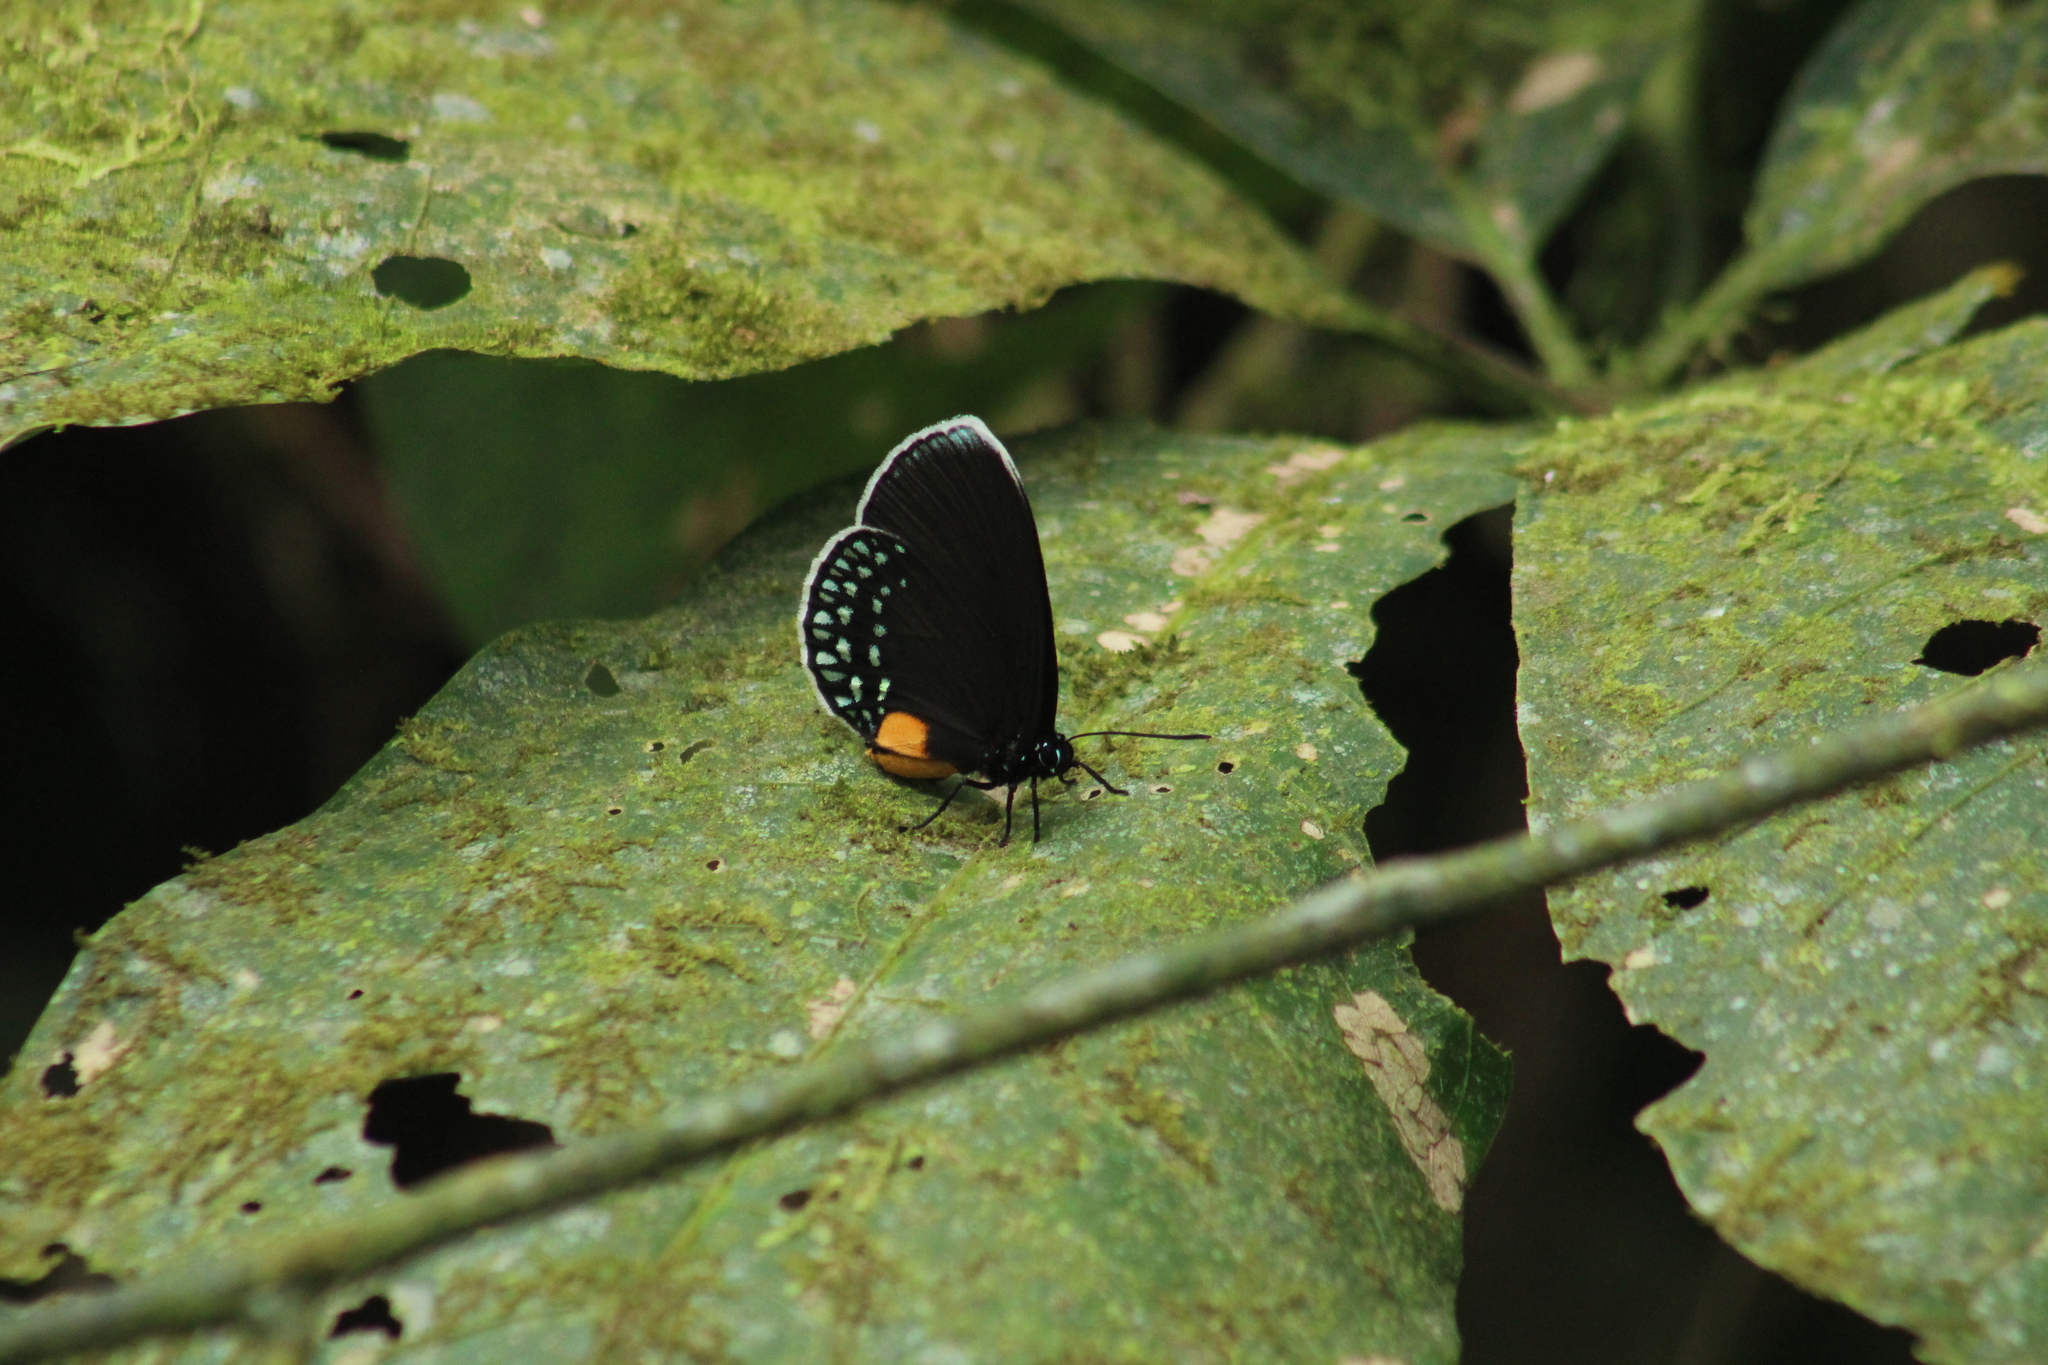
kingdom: Animalia
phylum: Arthropoda
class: Insecta
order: Lepidoptera
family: Lycaenidae
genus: Eumaeus
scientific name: Eumaeus godartii
